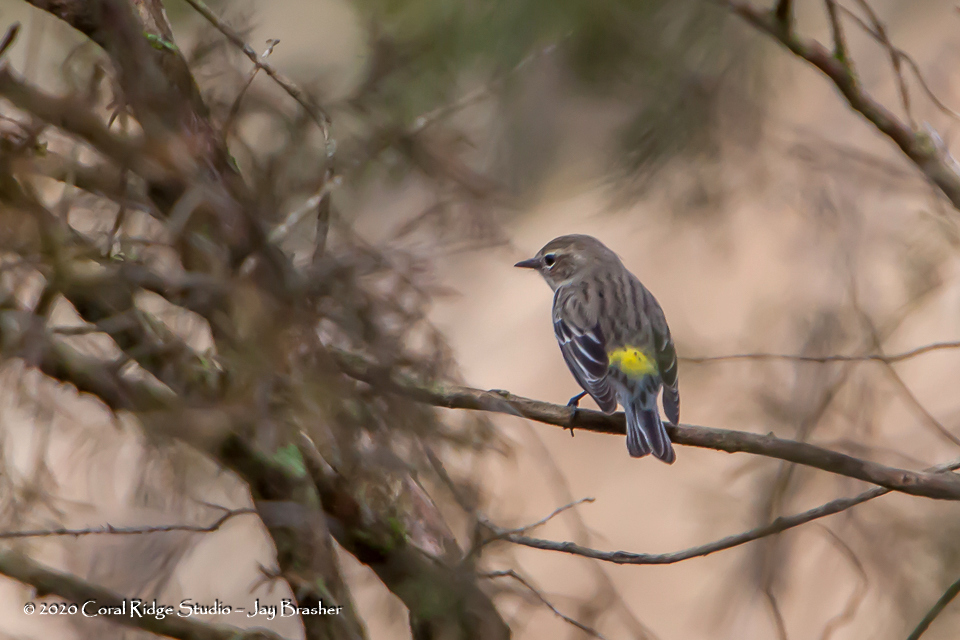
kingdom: Animalia
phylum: Chordata
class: Aves
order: Passeriformes
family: Parulidae
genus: Setophaga
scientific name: Setophaga coronata
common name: Myrtle warbler
